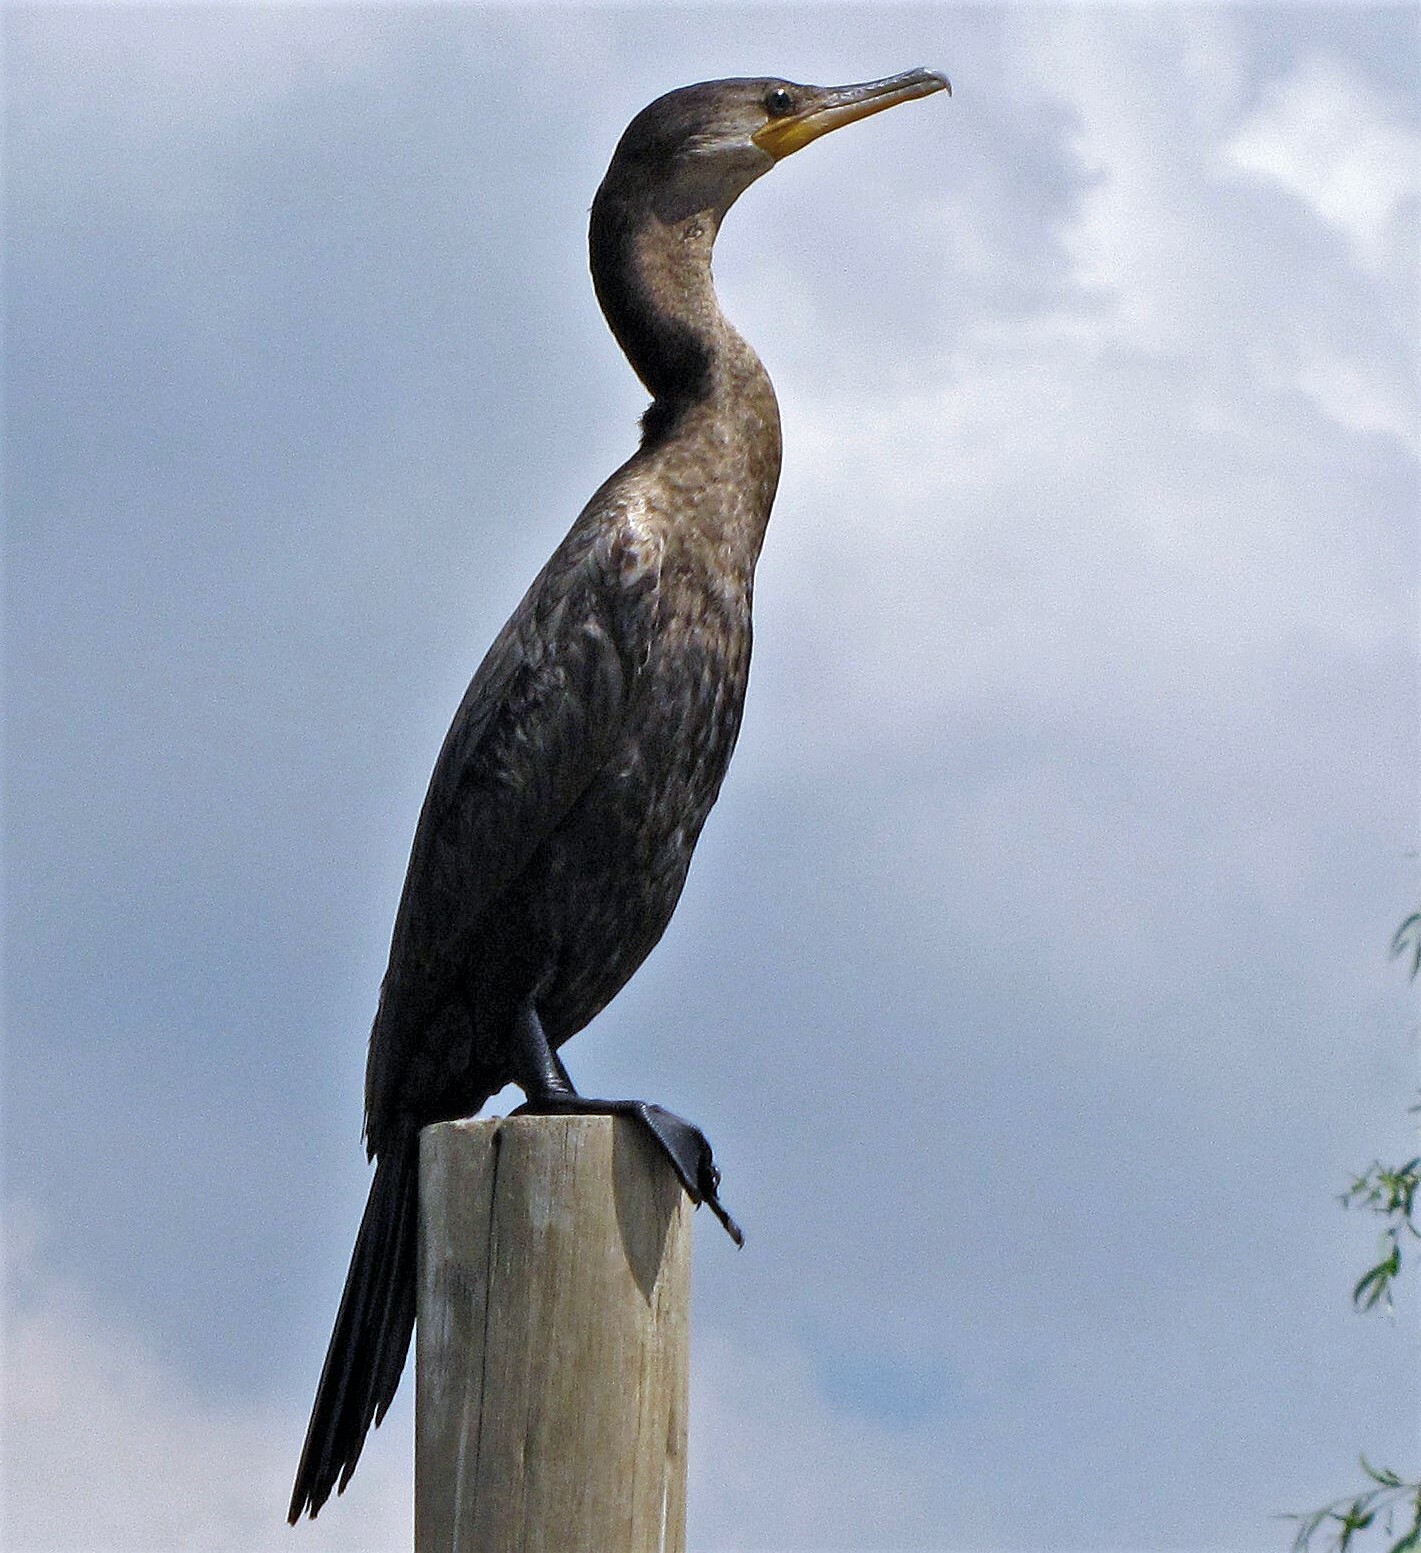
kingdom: Animalia
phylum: Chordata
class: Aves
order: Suliformes
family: Phalacrocoracidae
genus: Phalacrocorax
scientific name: Phalacrocorax brasilianus
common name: Neotropic cormorant
